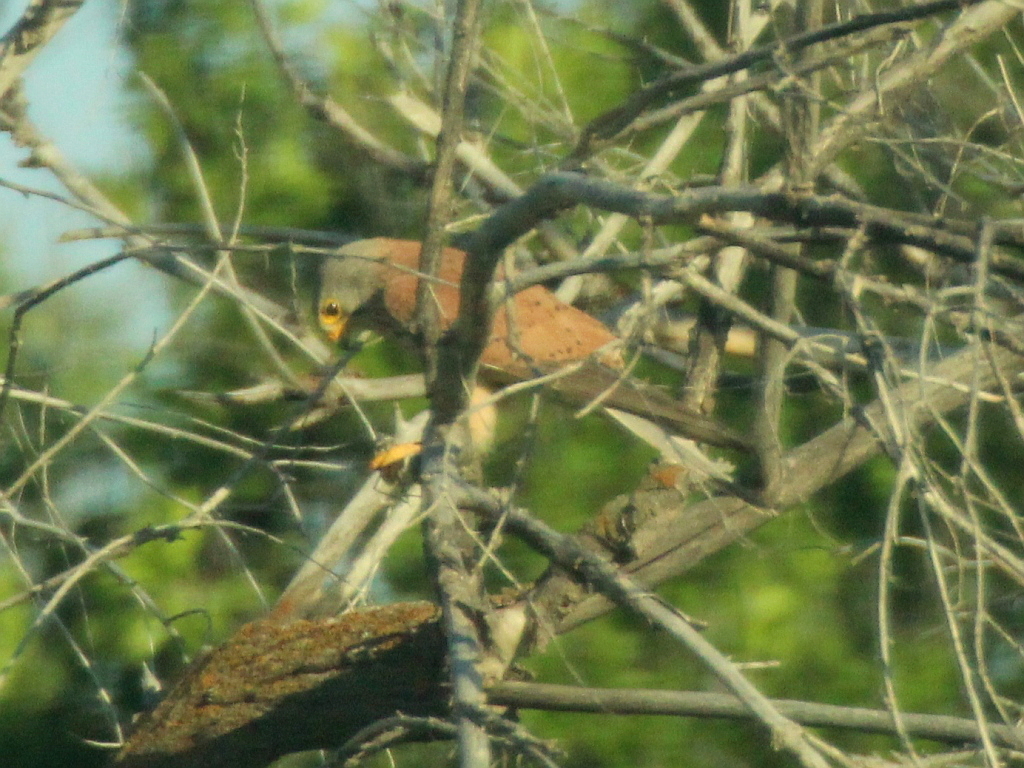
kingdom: Animalia
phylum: Chordata
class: Aves
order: Falconiformes
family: Falconidae
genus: Falco
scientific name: Falco tinnunculus
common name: Common kestrel
